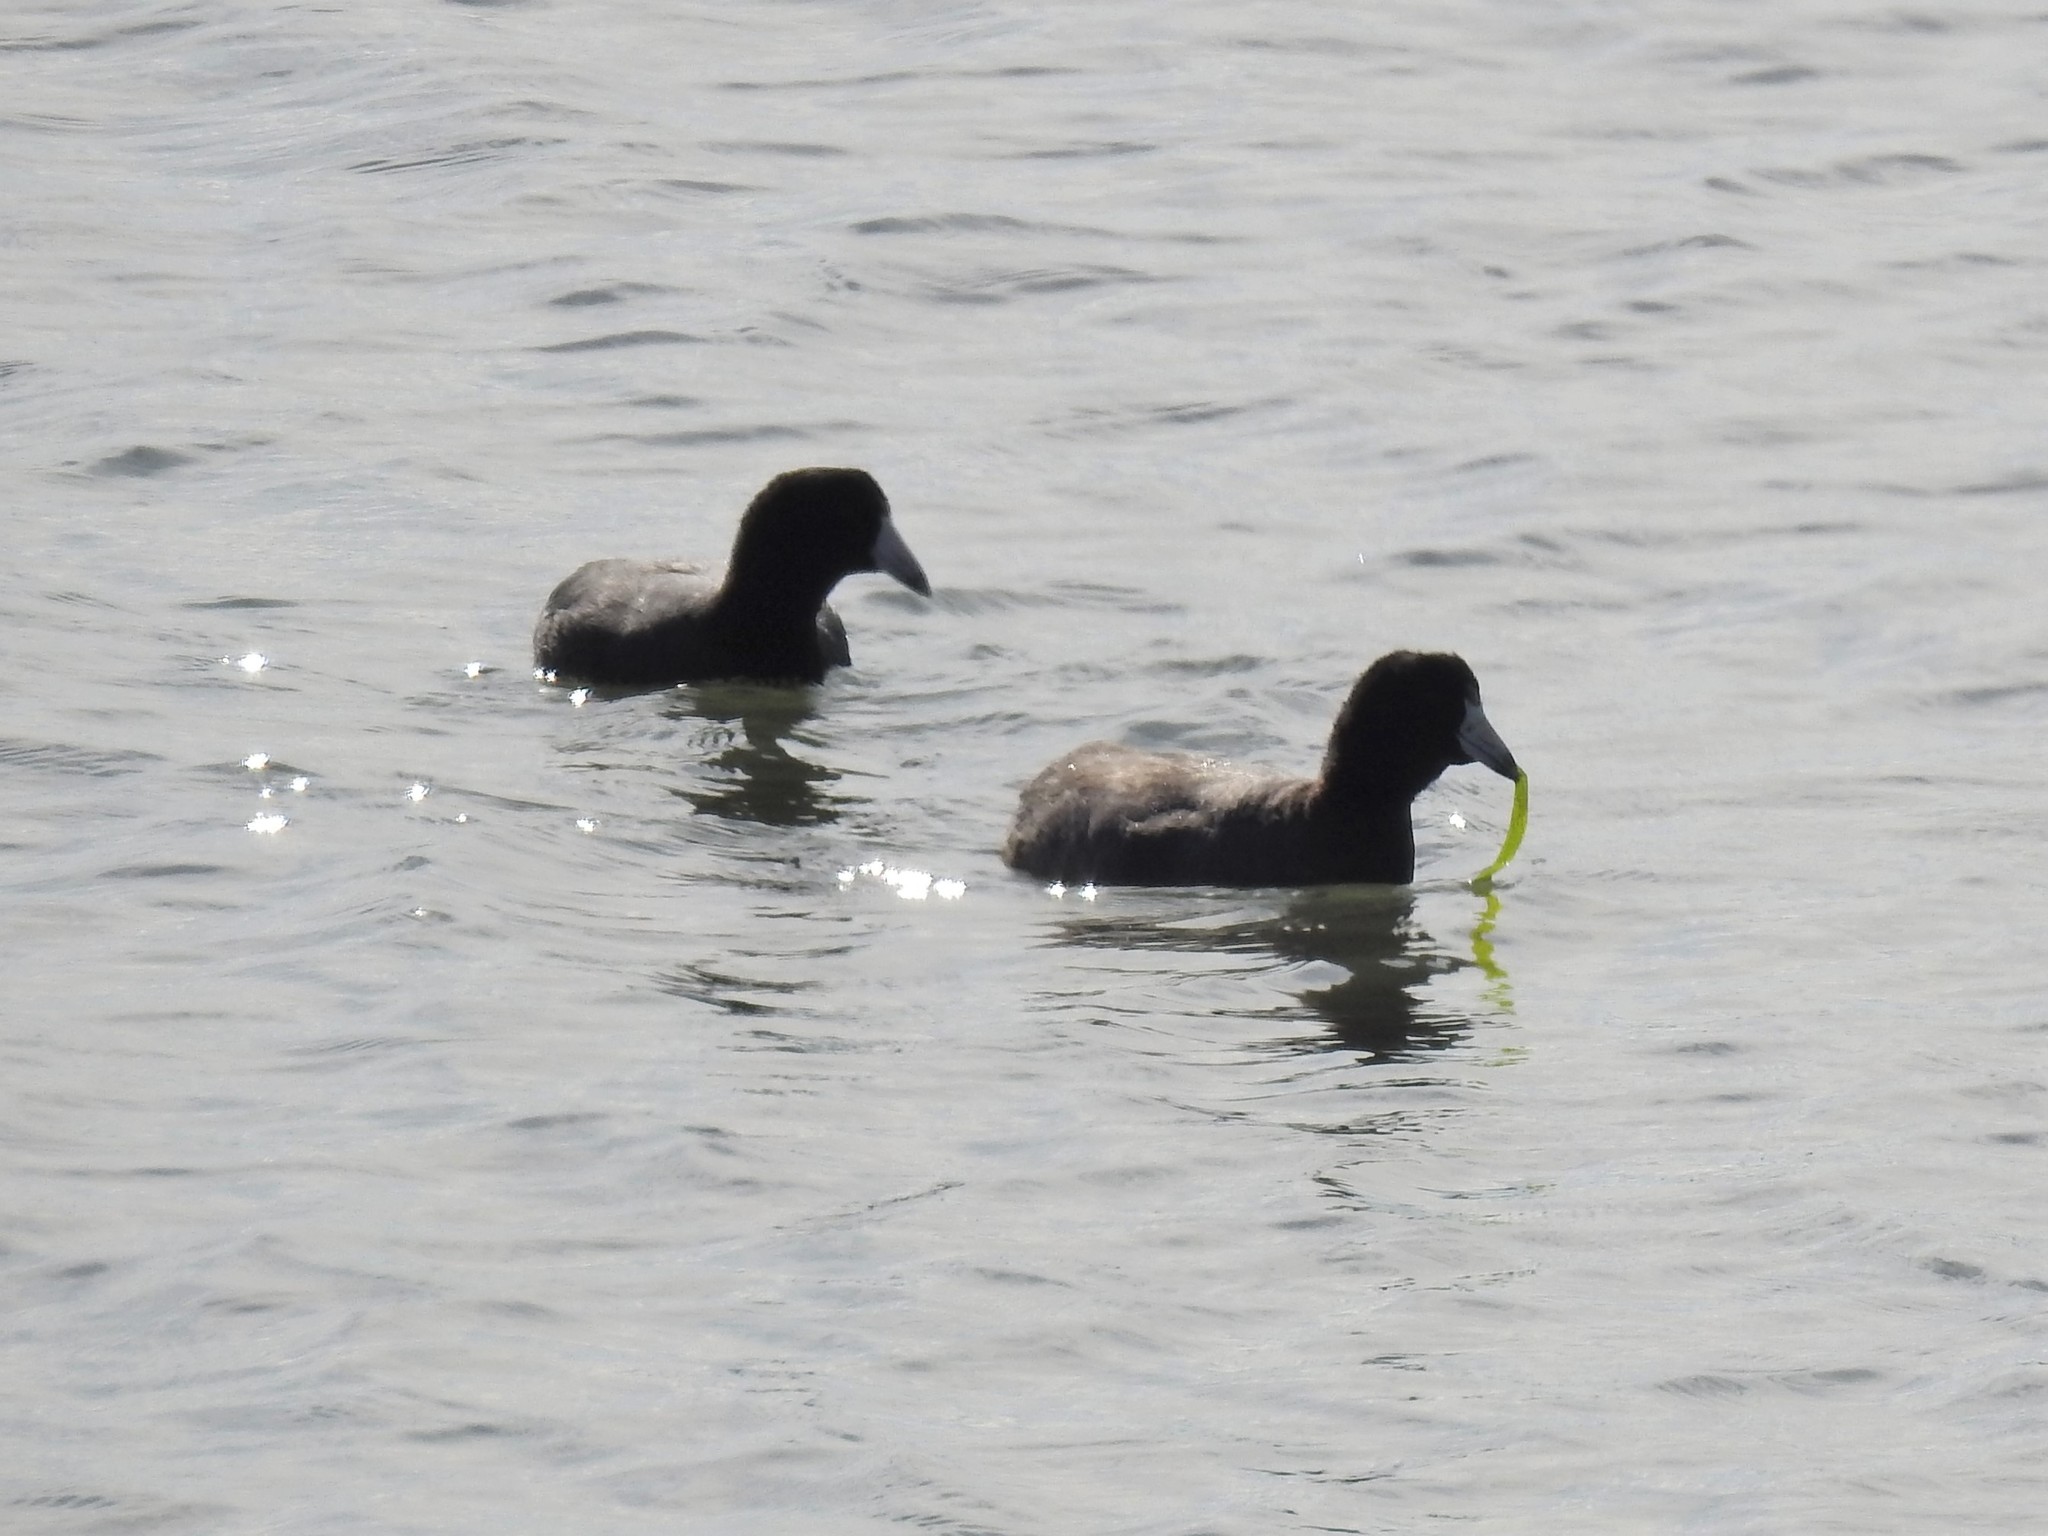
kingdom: Animalia
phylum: Chordata
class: Aves
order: Gruiformes
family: Rallidae
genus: Fulica
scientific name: Fulica americana
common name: American coot
